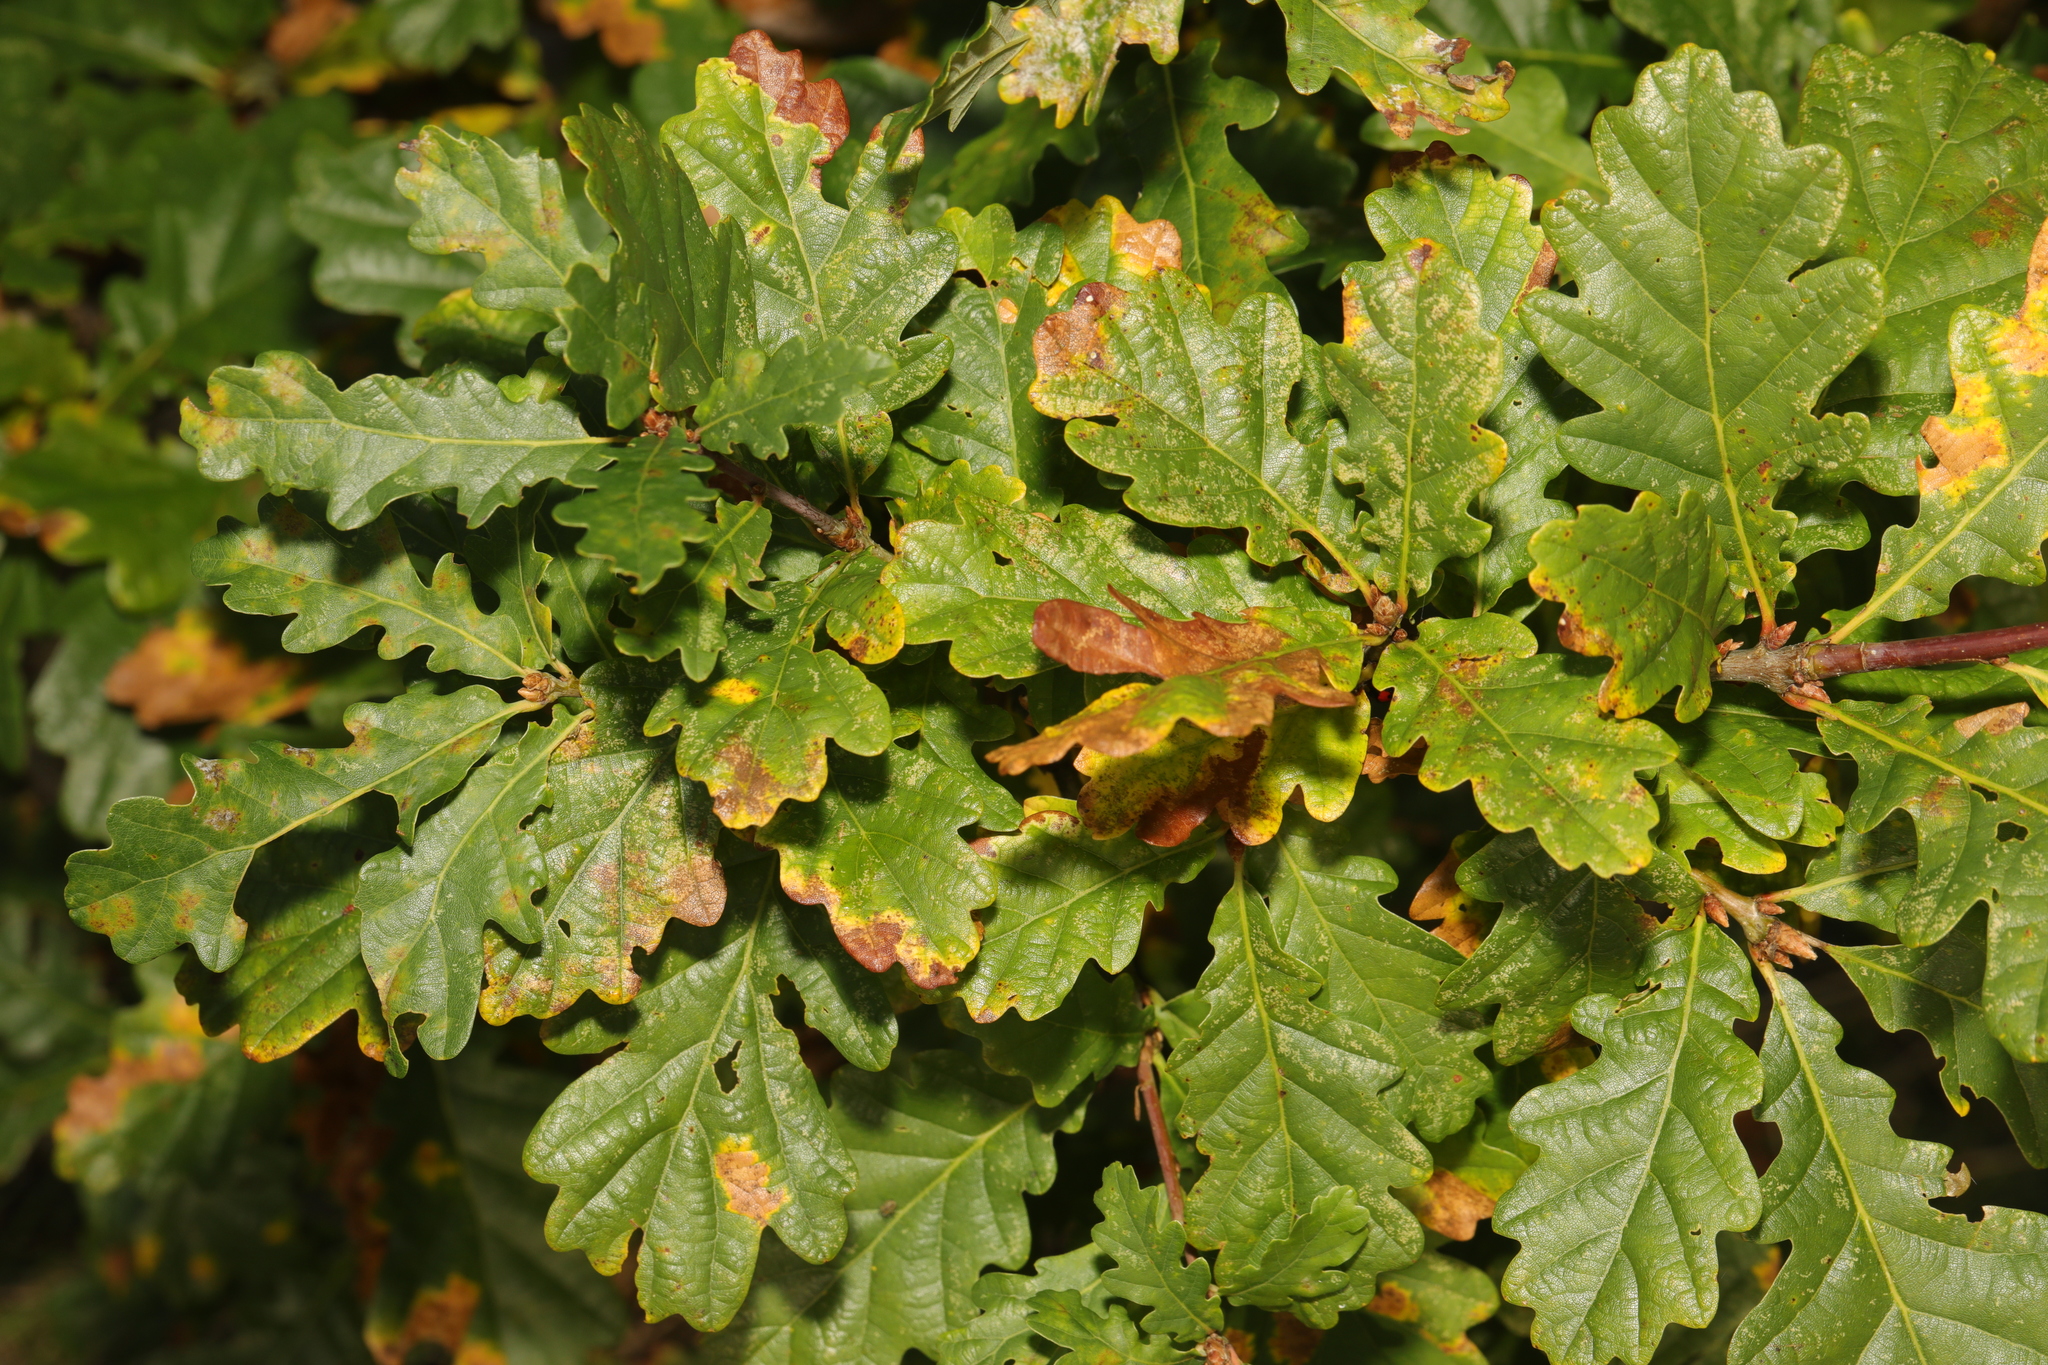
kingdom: Plantae
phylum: Tracheophyta
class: Magnoliopsida
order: Fagales
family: Fagaceae
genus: Quercus
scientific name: Quercus robur
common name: Pedunculate oak
